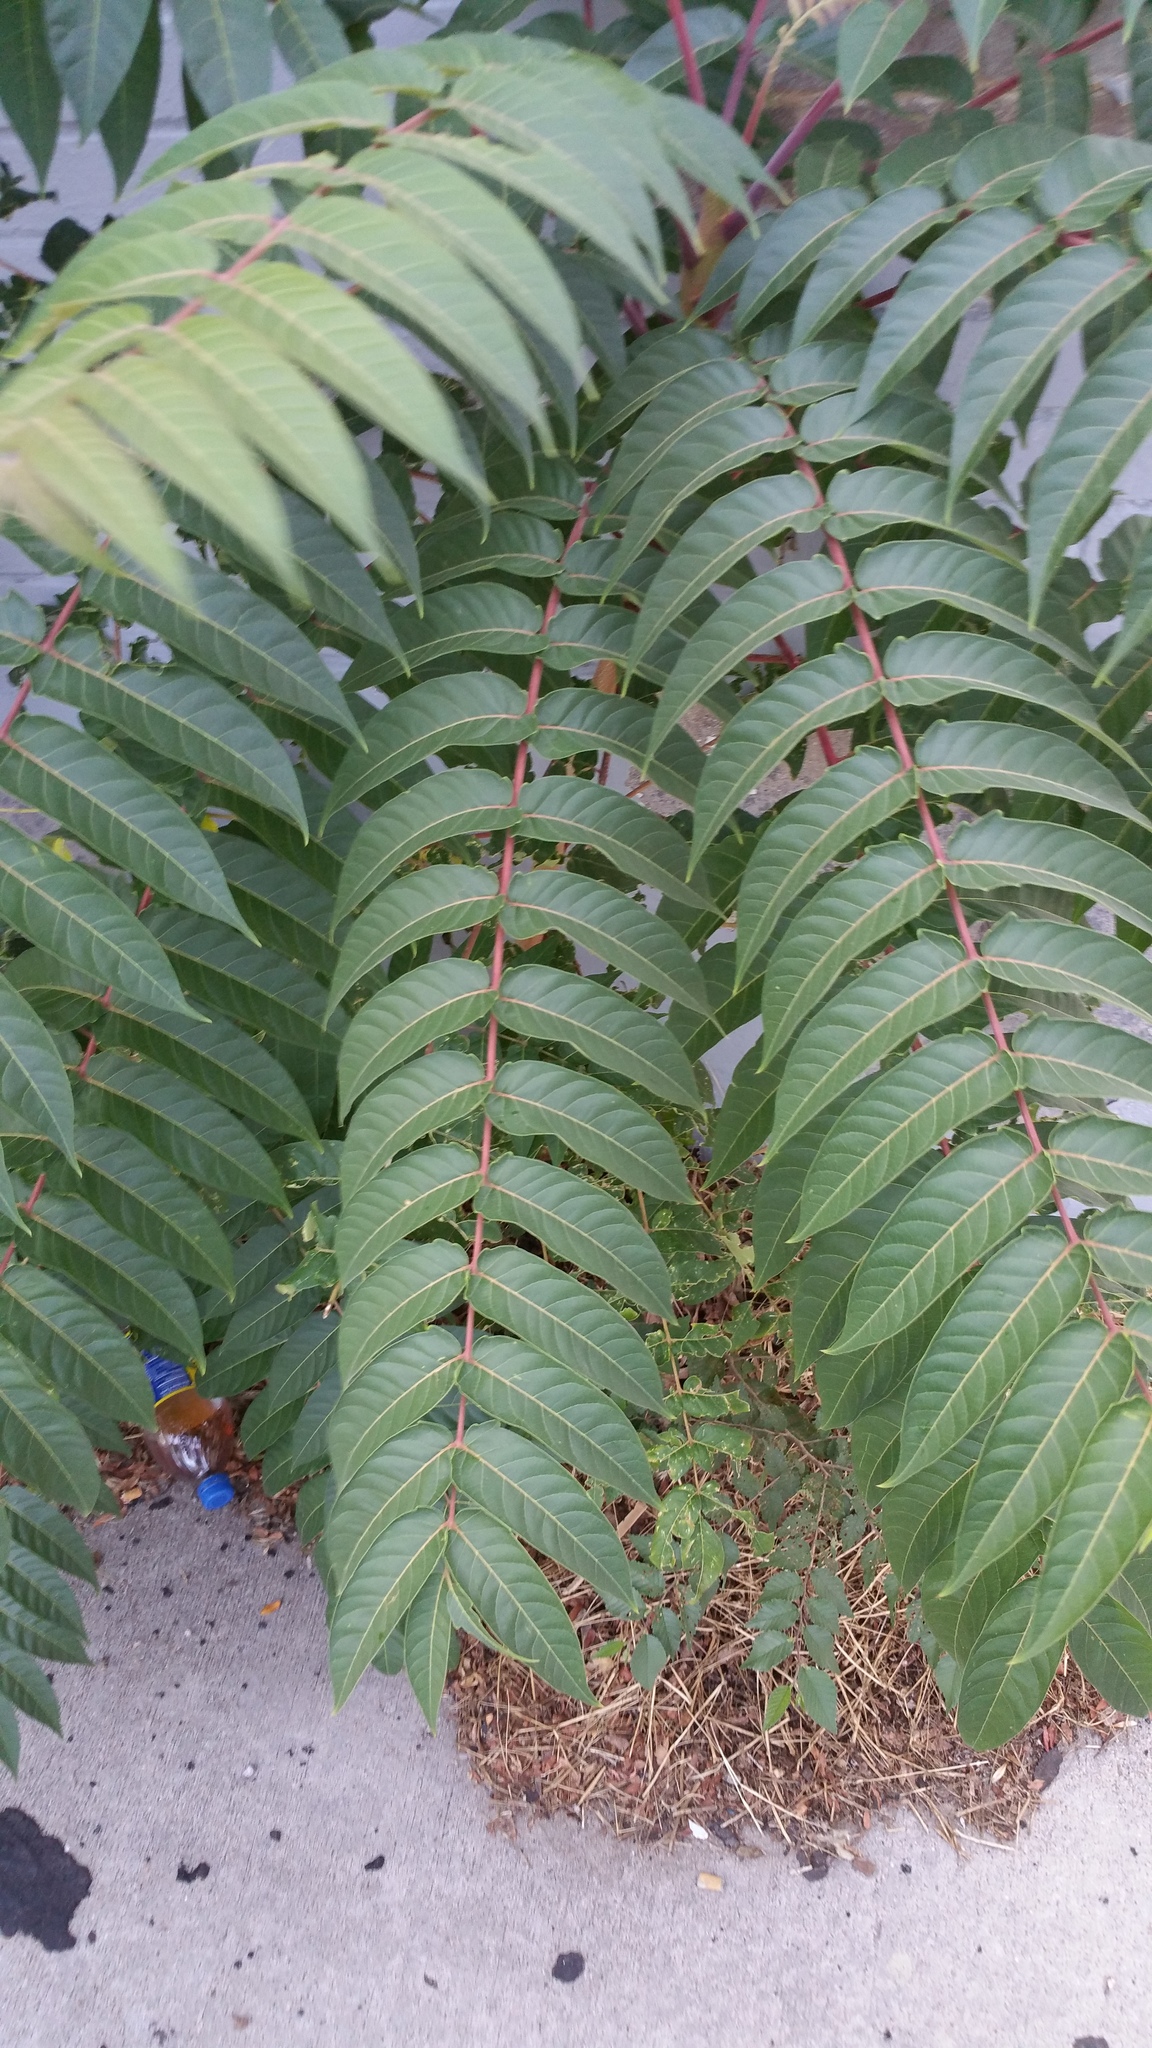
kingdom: Plantae
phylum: Tracheophyta
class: Magnoliopsida
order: Sapindales
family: Simaroubaceae
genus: Ailanthus
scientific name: Ailanthus altissima
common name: Tree-of-heaven
